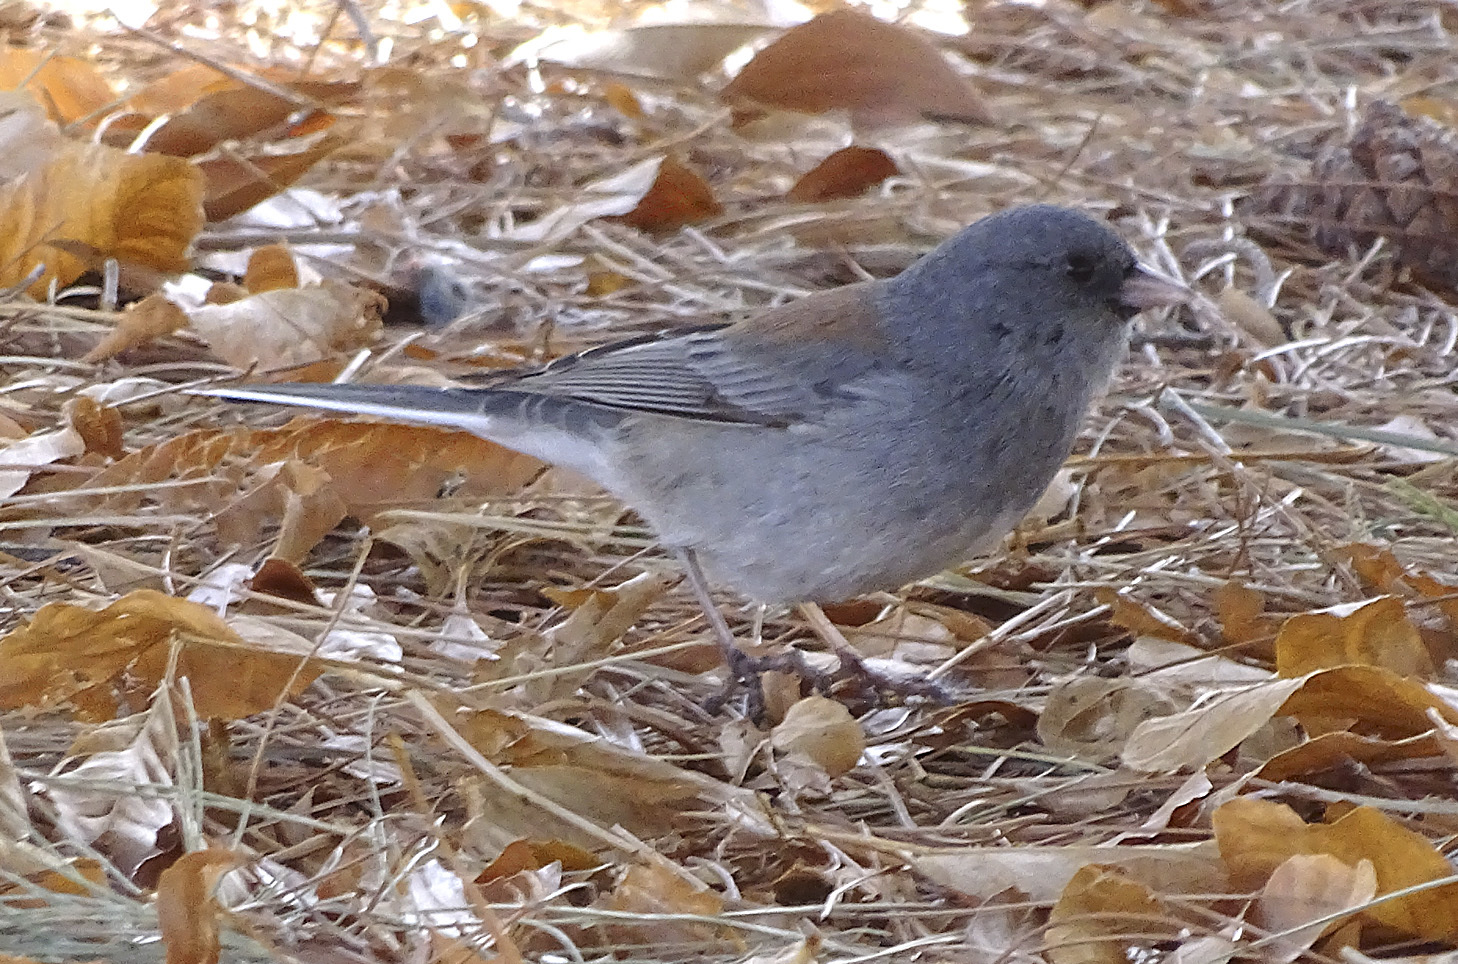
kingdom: Animalia
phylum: Chordata
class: Aves
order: Passeriformes
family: Passerellidae
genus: Junco
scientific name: Junco hyemalis
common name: Dark-eyed junco
